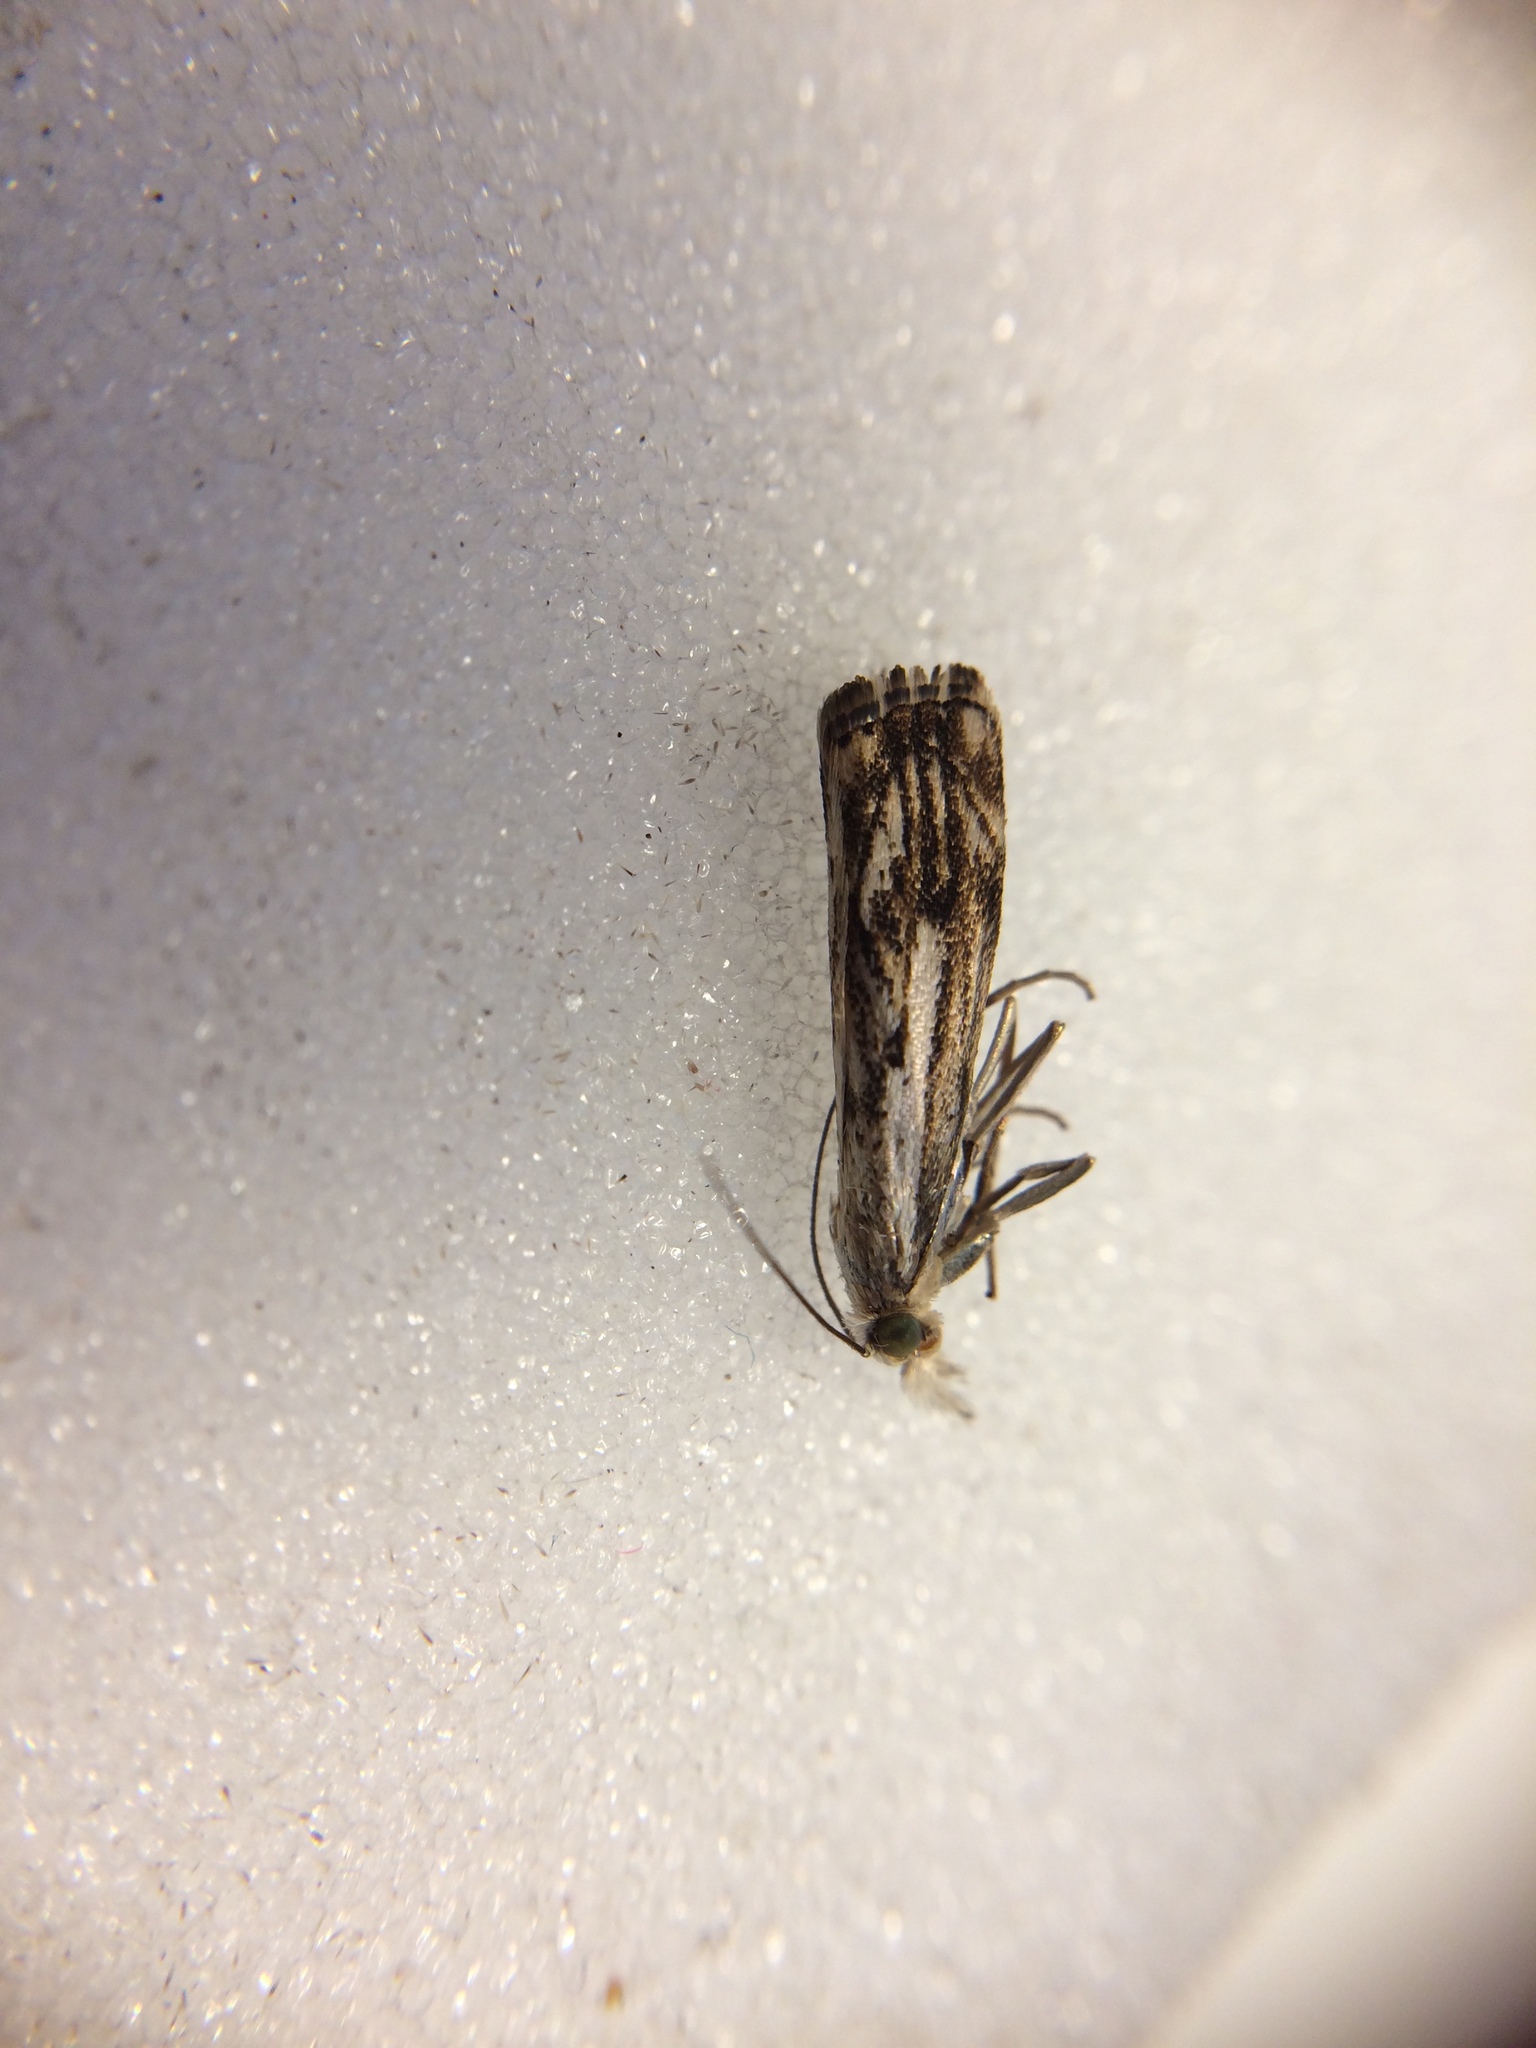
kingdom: Animalia
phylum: Arthropoda
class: Insecta
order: Lepidoptera
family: Crambidae
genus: Catoptria
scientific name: Catoptria falsella
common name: Chequered grass-veneer
